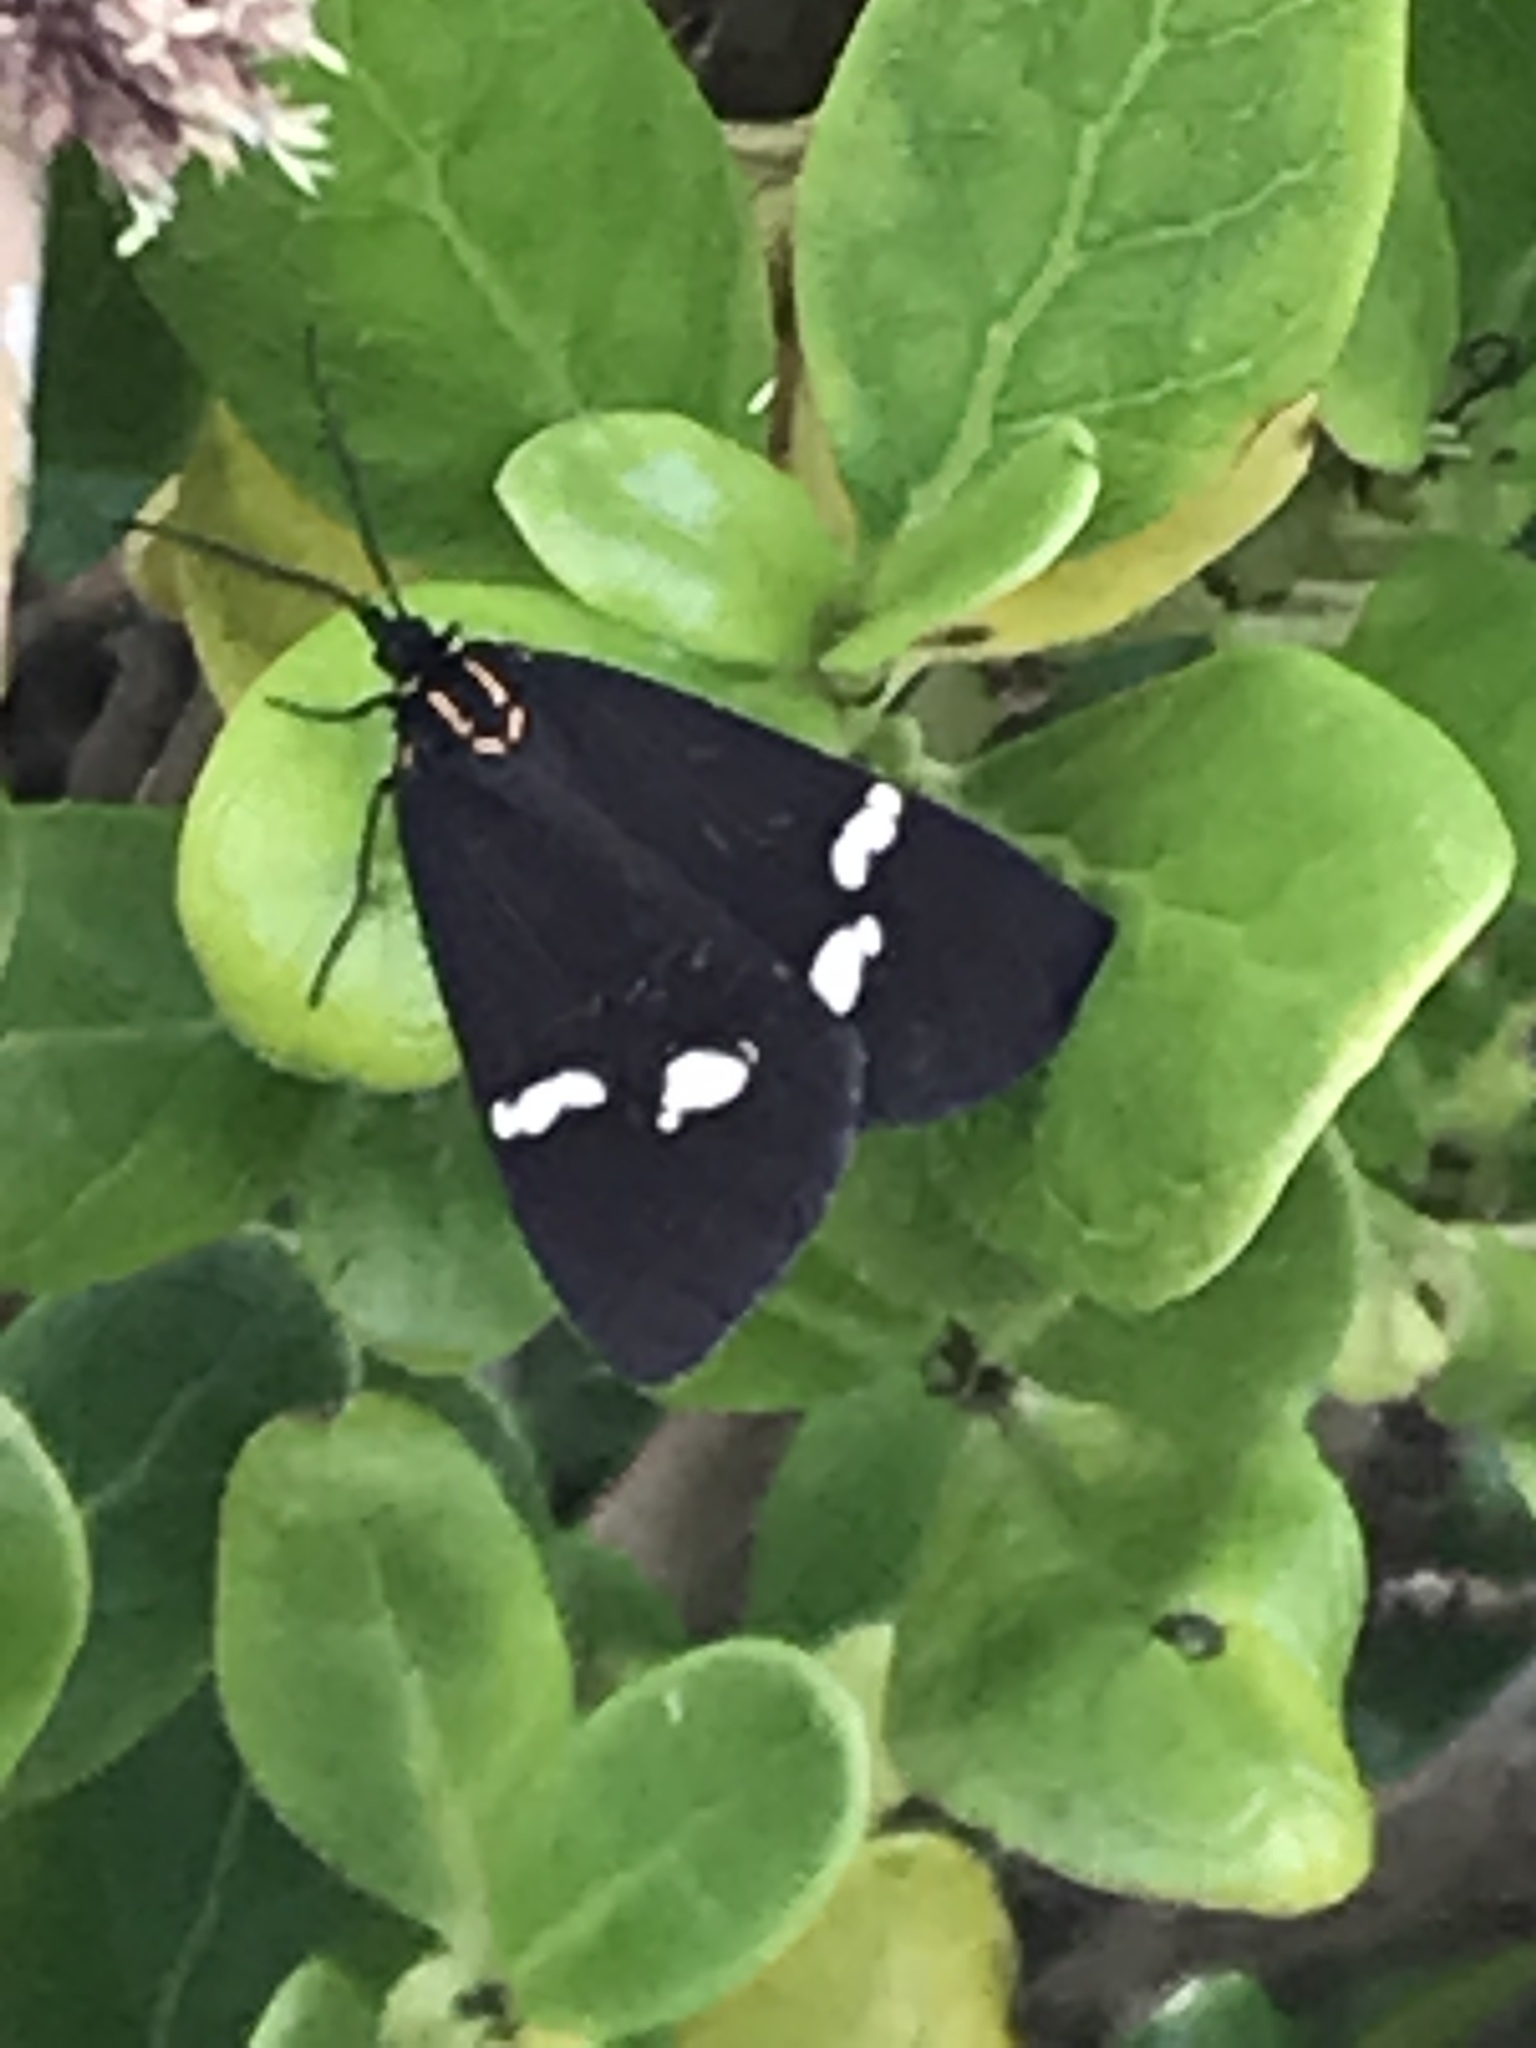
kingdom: Animalia
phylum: Arthropoda
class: Insecta
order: Lepidoptera
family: Erebidae
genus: Nyctemera
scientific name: Nyctemera annulatum
